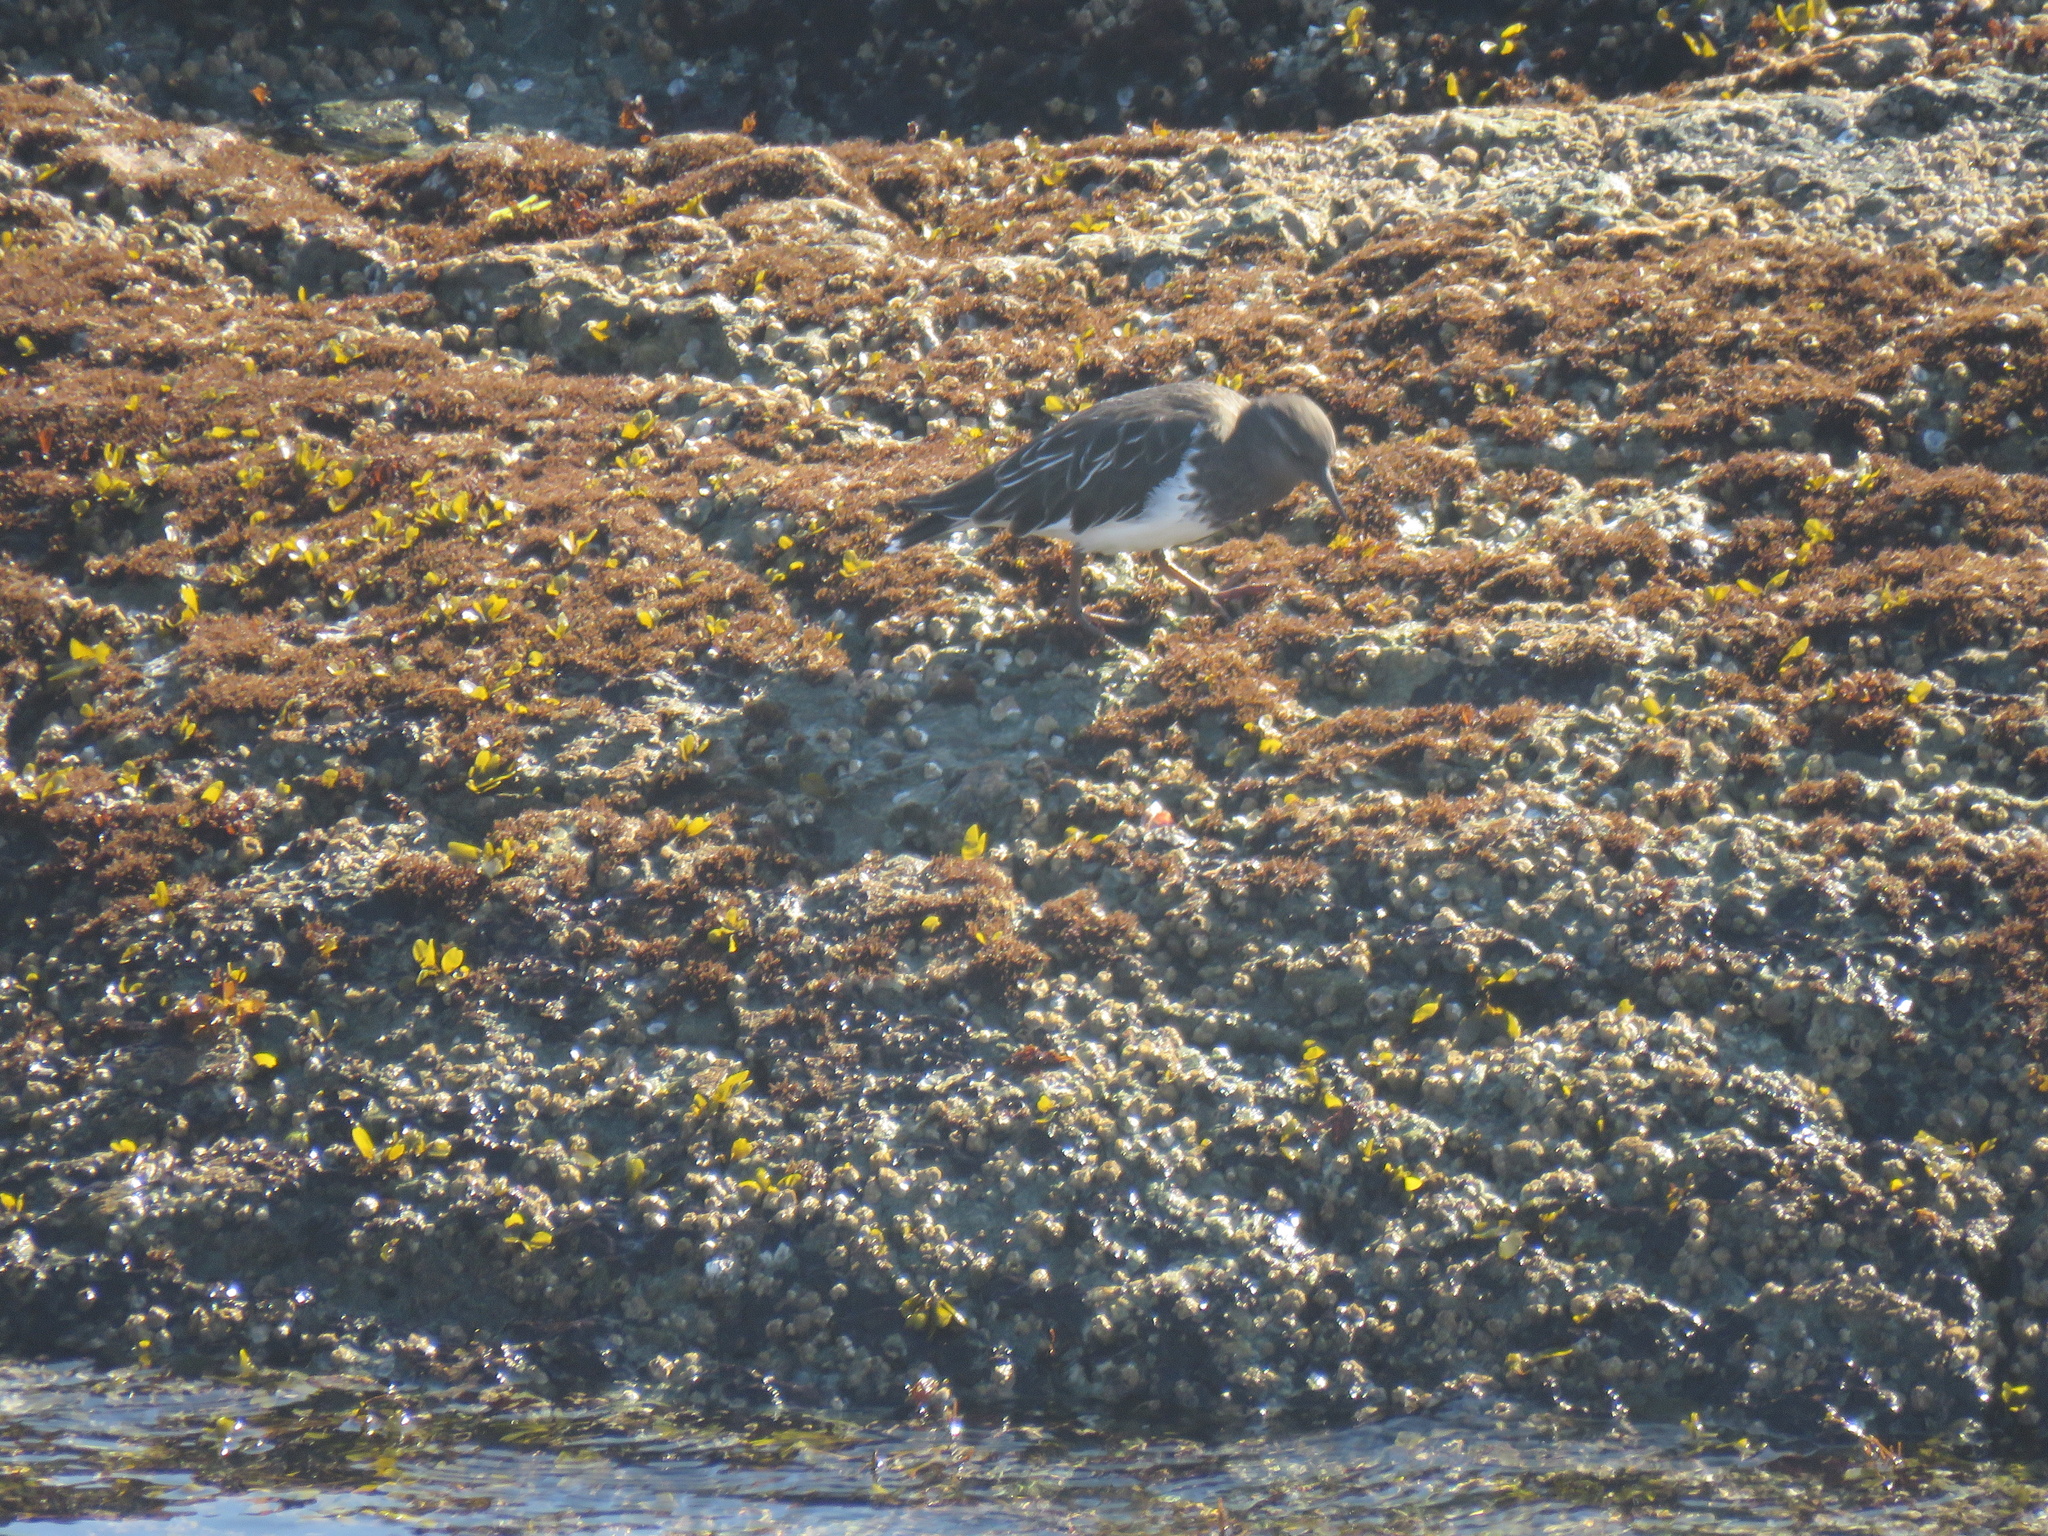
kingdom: Animalia
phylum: Chordata
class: Aves
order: Charadriiformes
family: Scolopacidae
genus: Arenaria
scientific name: Arenaria melanocephala
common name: Black turnstone
